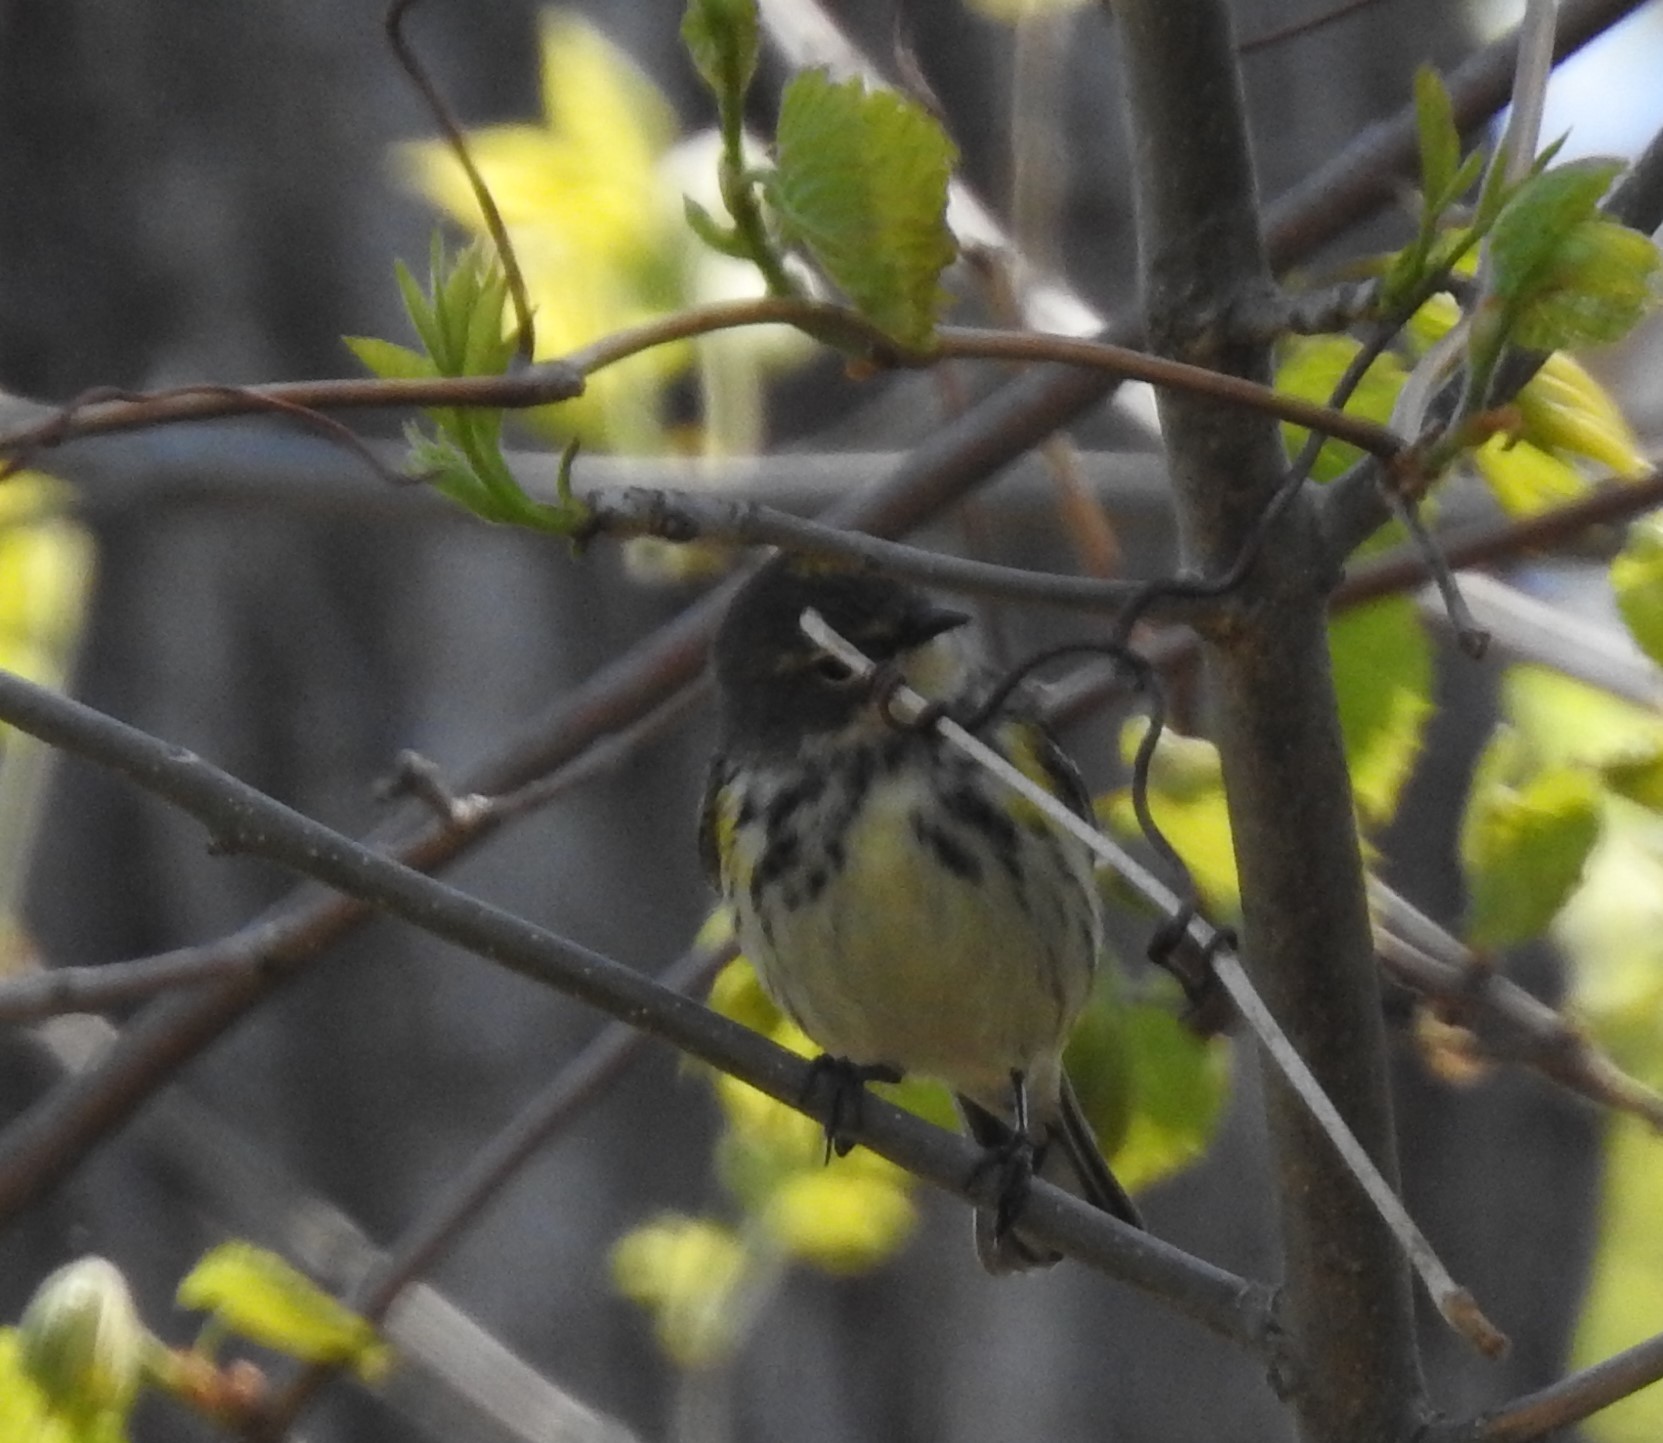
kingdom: Animalia
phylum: Chordata
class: Aves
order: Passeriformes
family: Parulidae
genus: Setophaga
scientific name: Setophaga coronata
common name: Myrtle warbler
